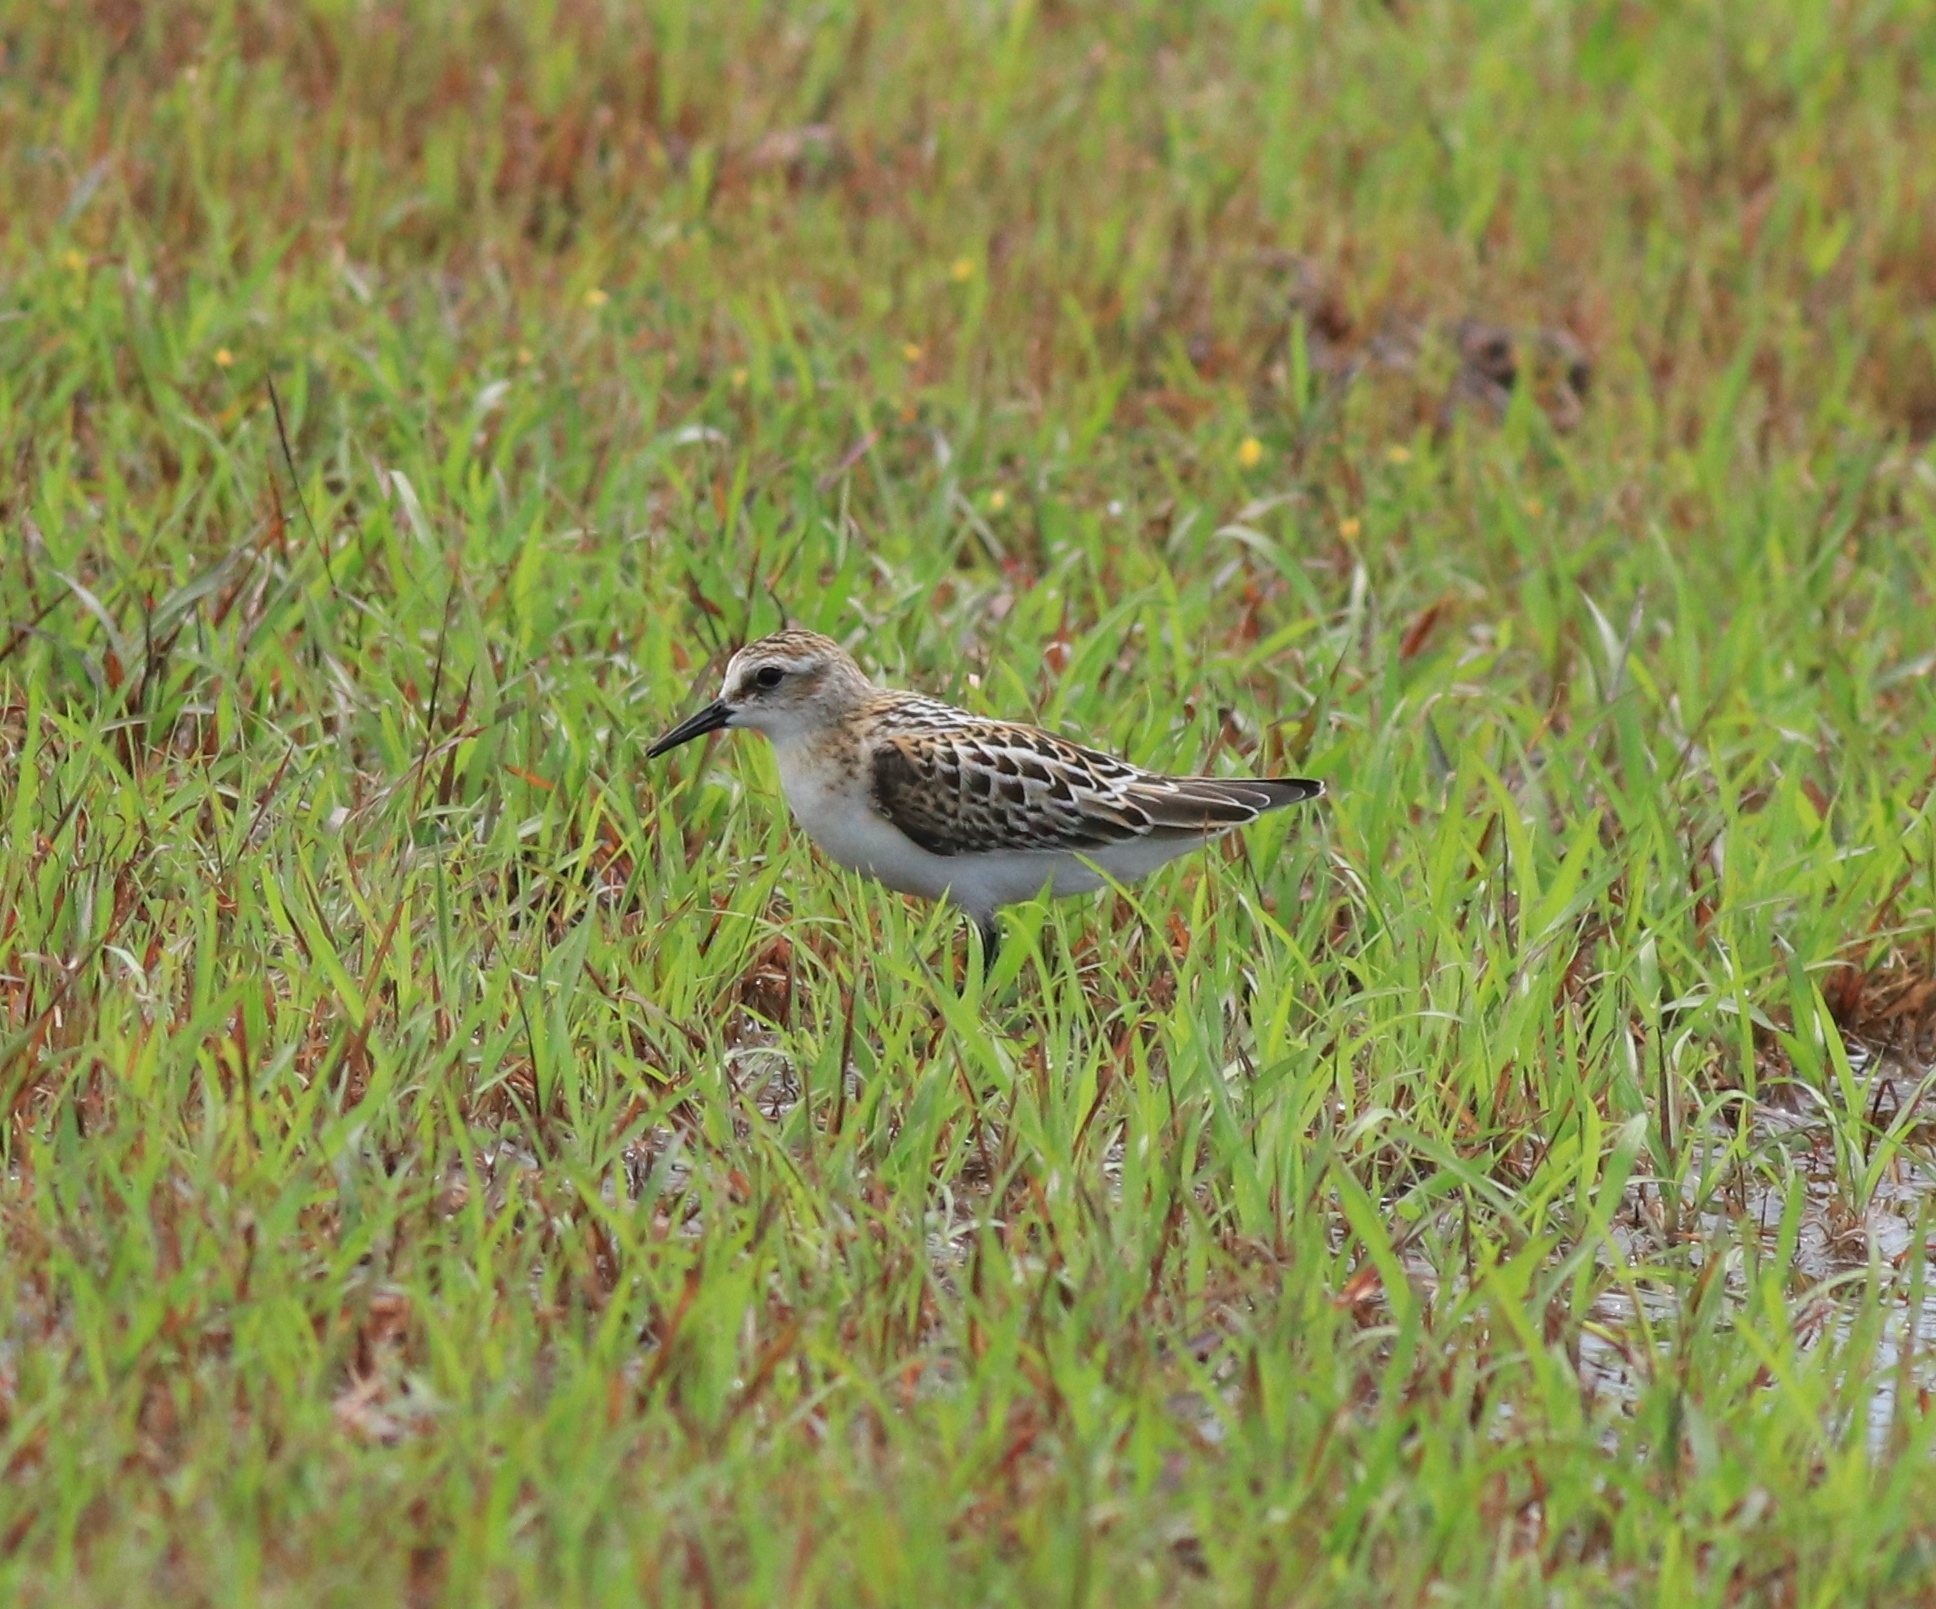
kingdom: Animalia
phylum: Chordata
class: Aves
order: Charadriiformes
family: Scolopacidae
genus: Calidris
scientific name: Calidris minuta
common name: Little stint
